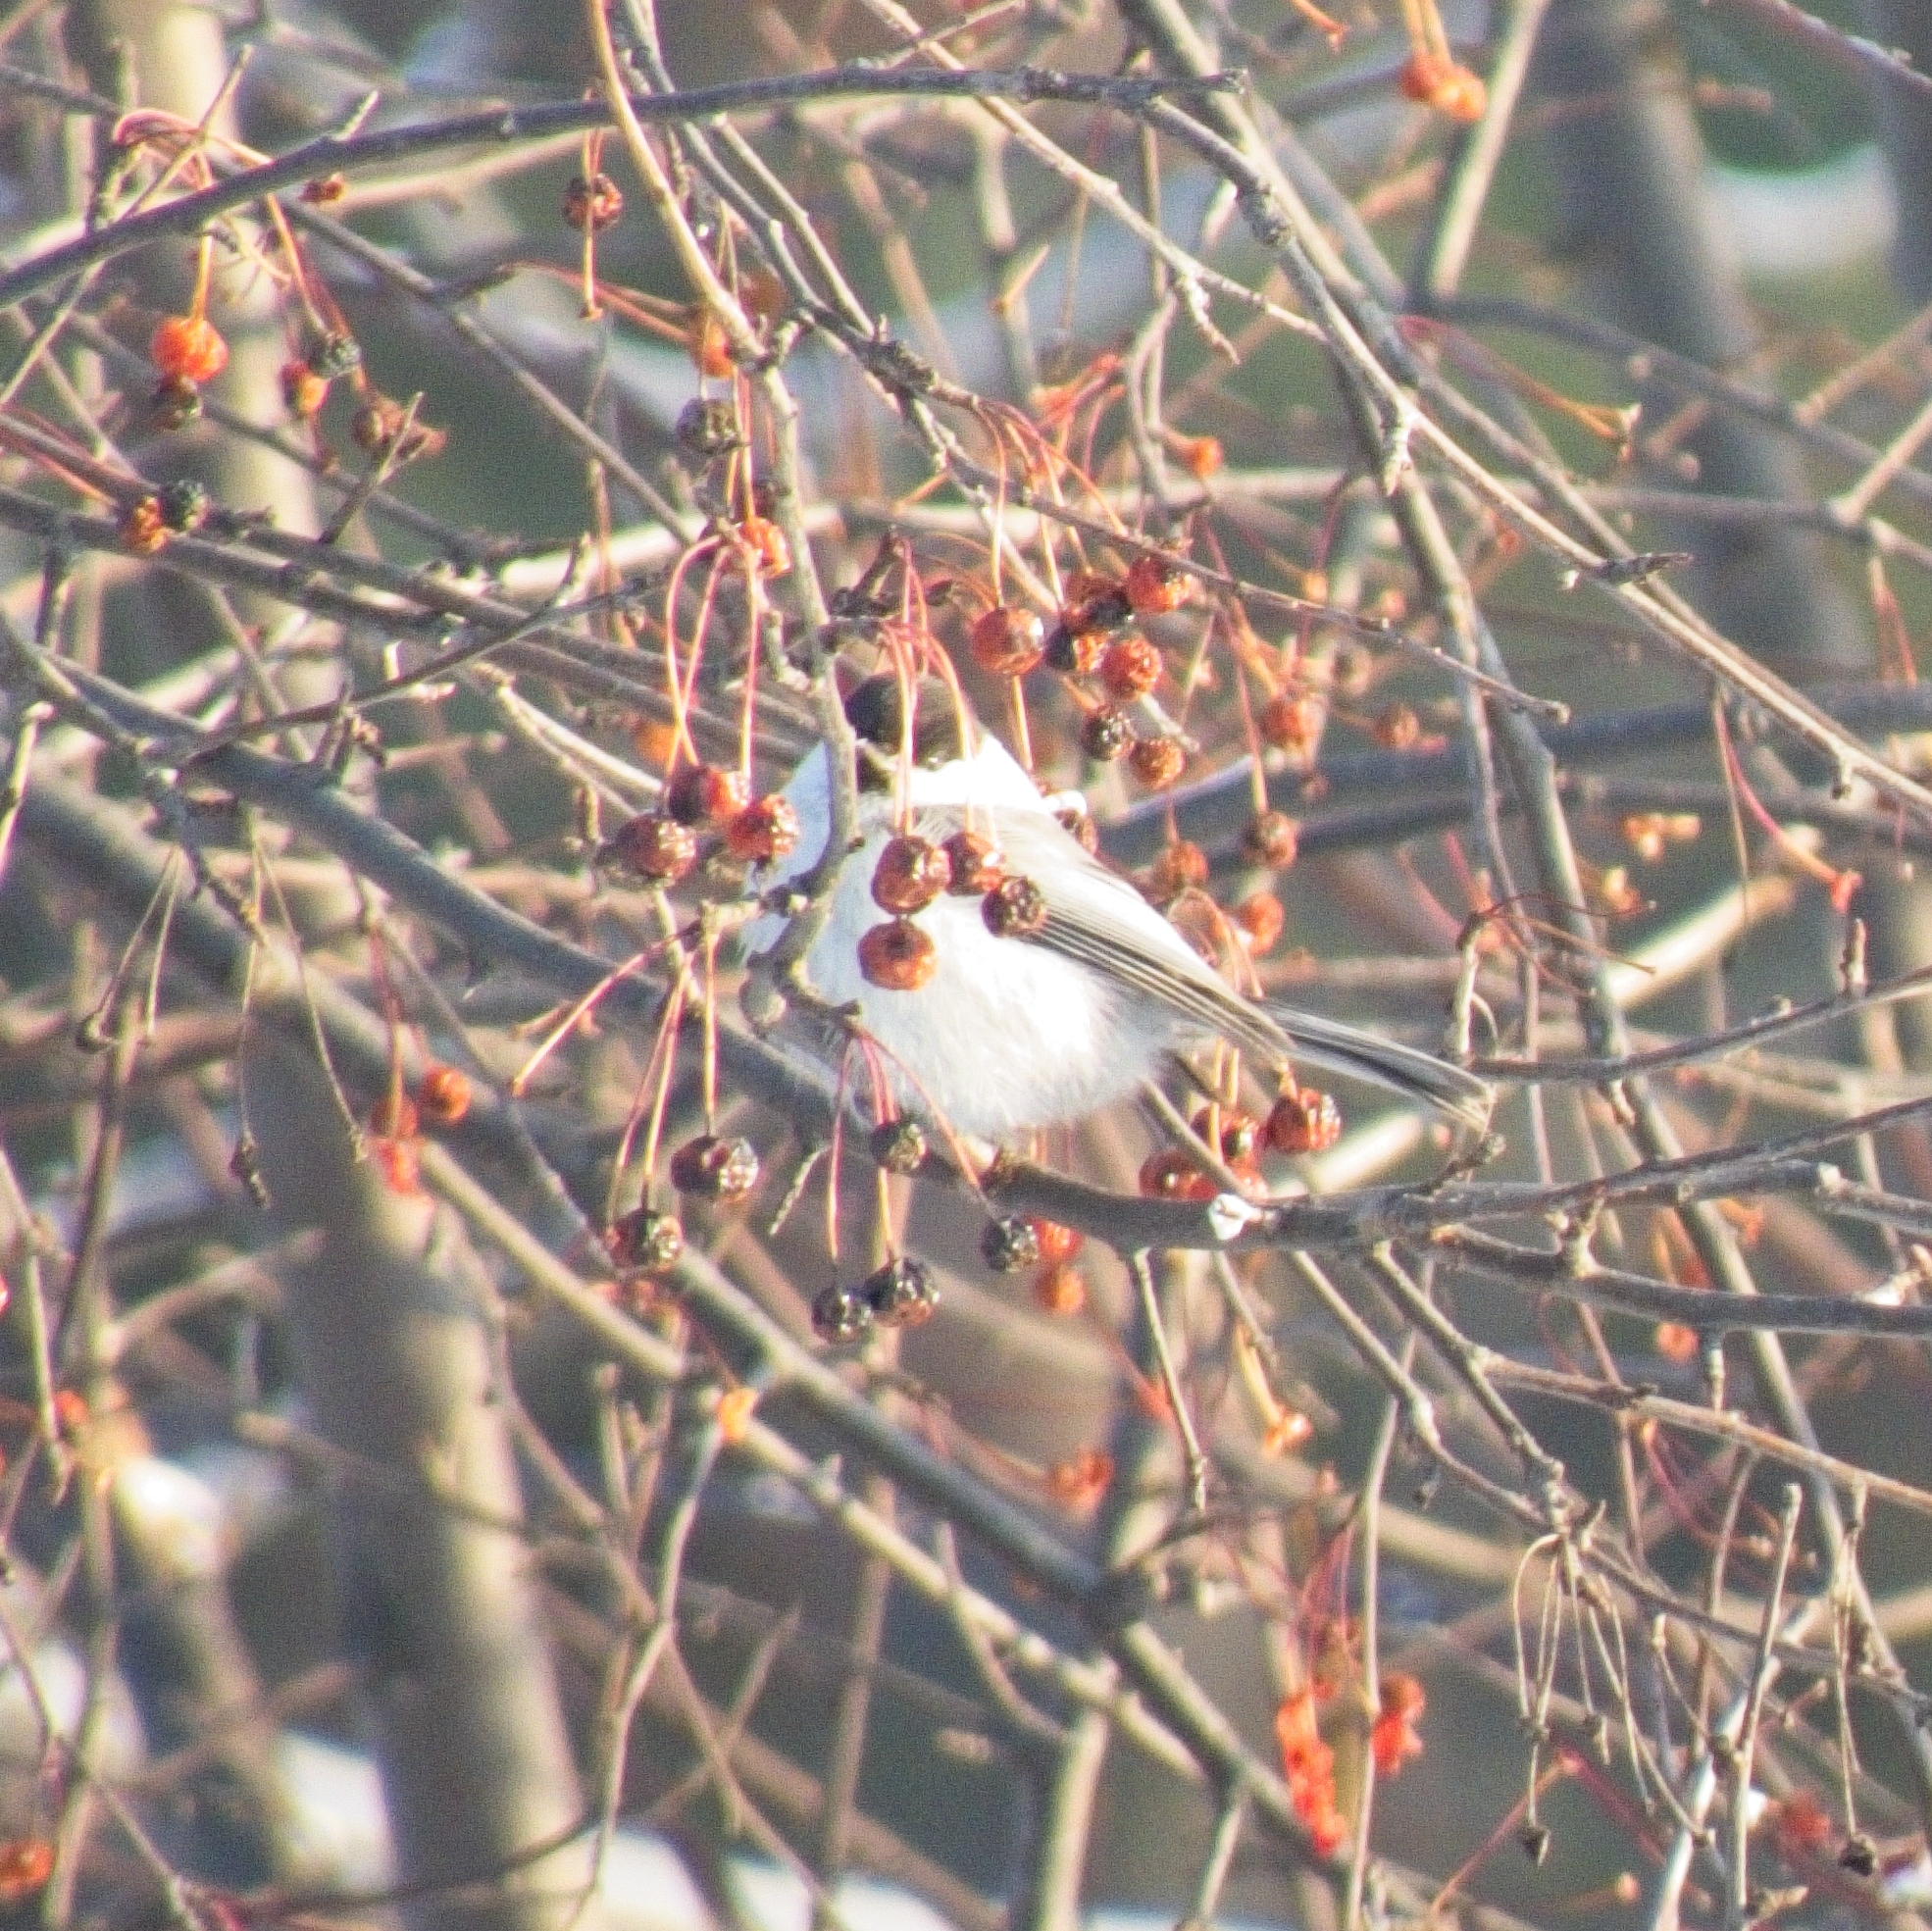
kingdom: Animalia
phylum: Chordata
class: Aves
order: Passeriformes
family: Paridae
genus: Poecile
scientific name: Poecile montanus
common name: Willow tit
